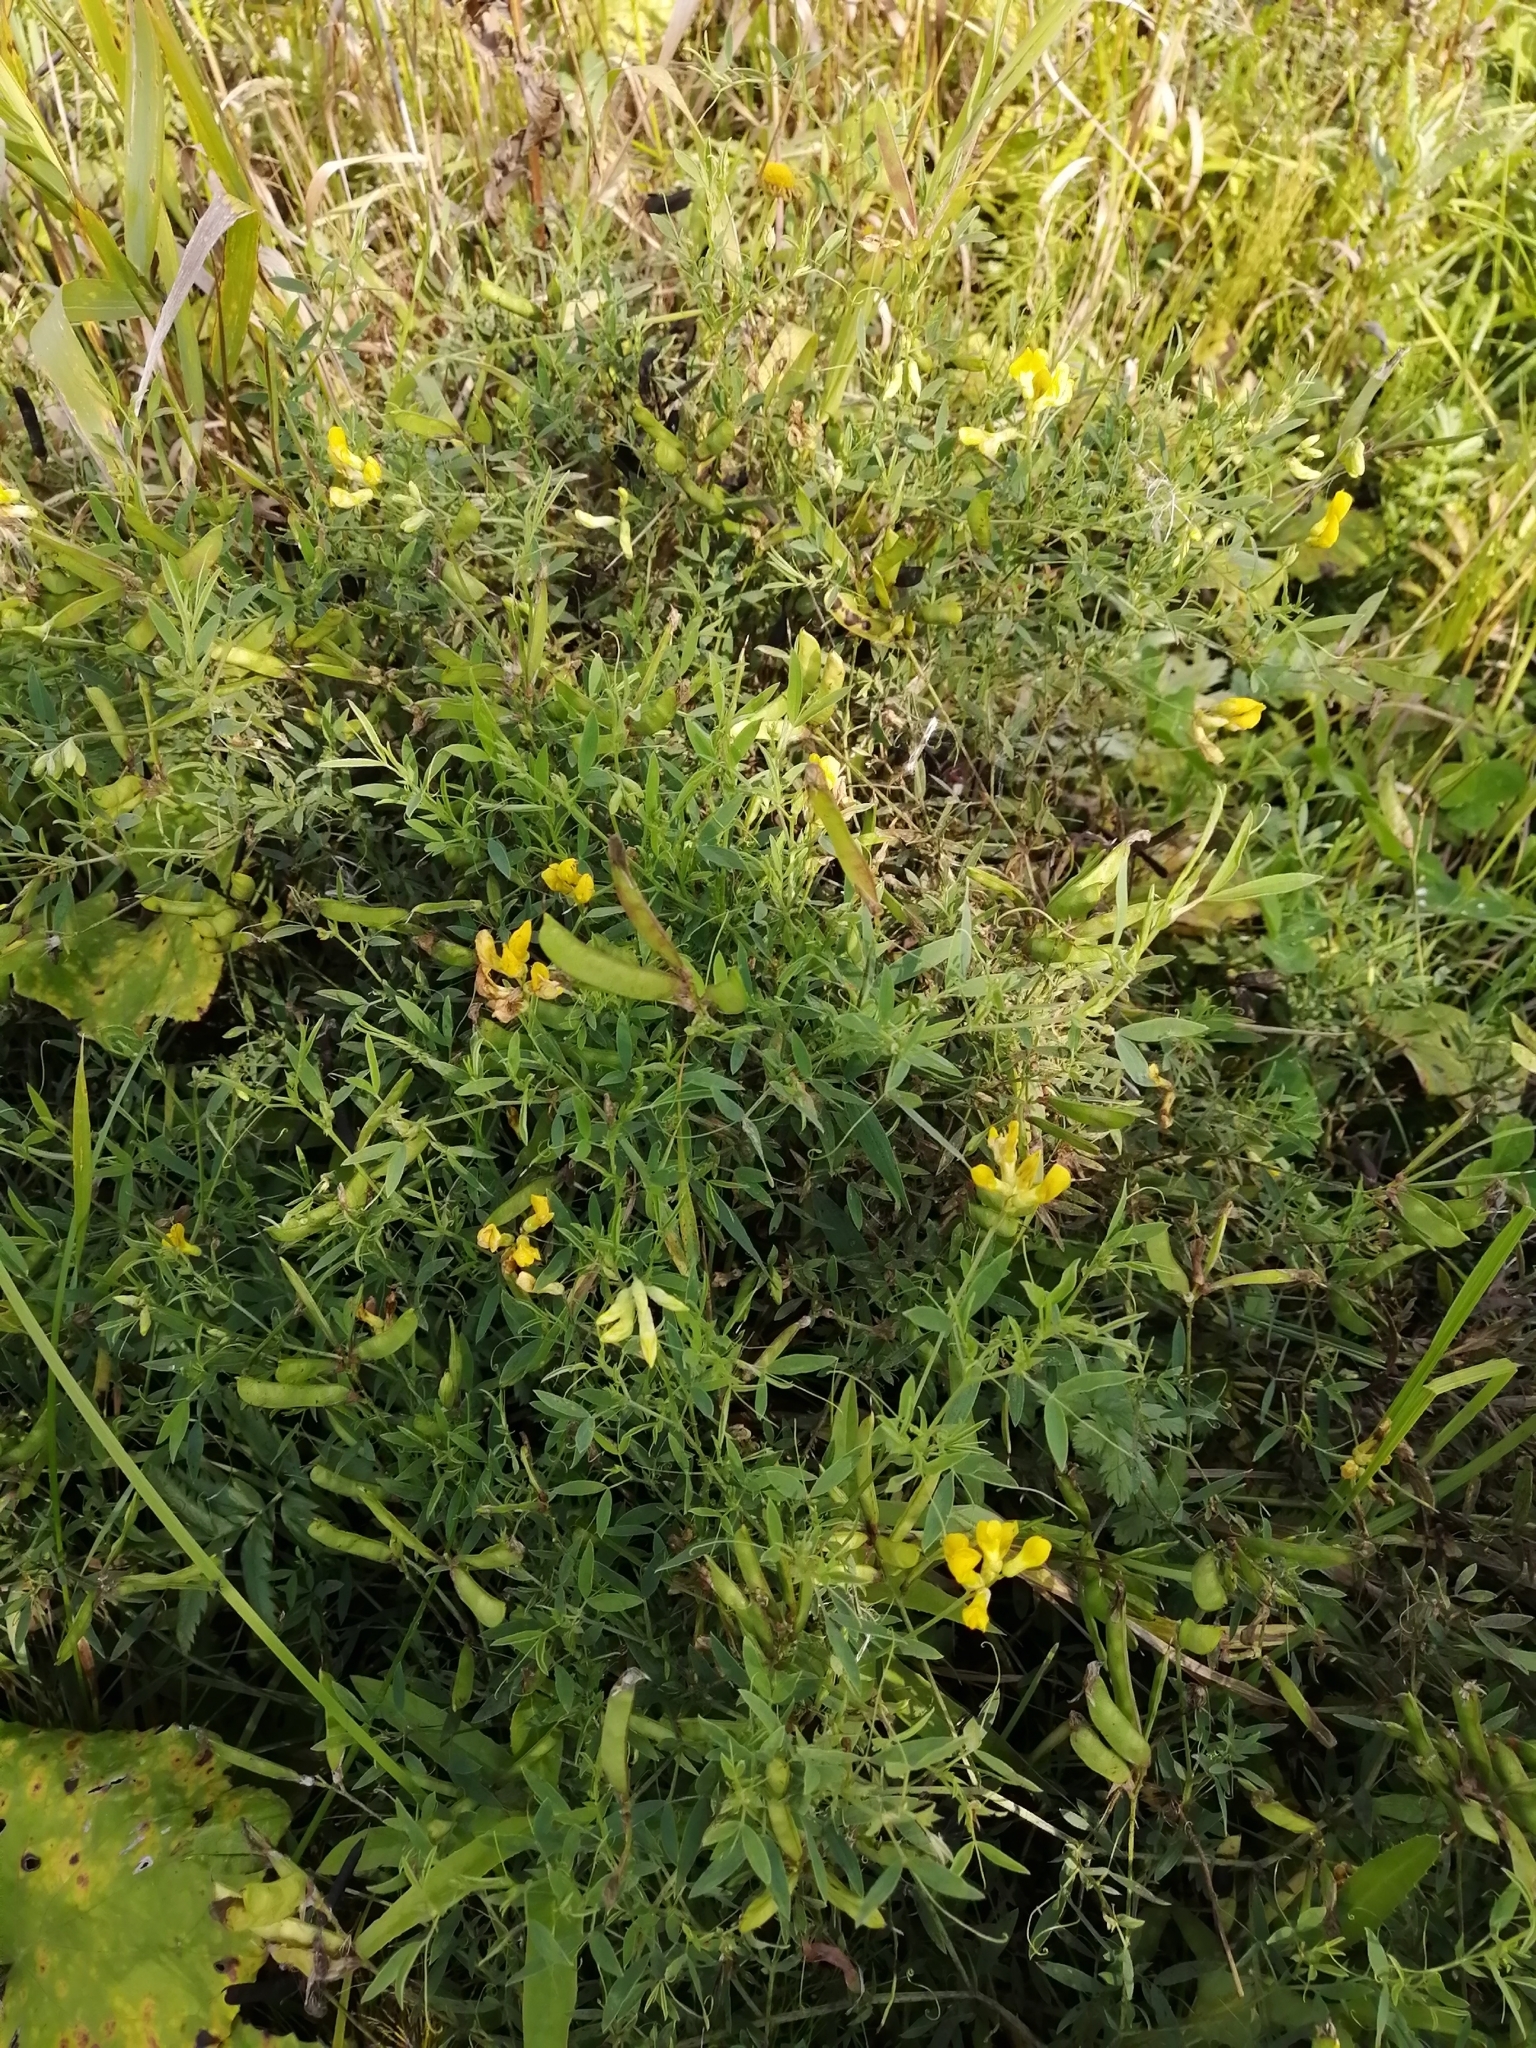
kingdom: Plantae
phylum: Tracheophyta
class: Magnoliopsida
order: Fabales
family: Fabaceae
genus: Lathyrus
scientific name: Lathyrus pratensis
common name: Meadow vetchling
